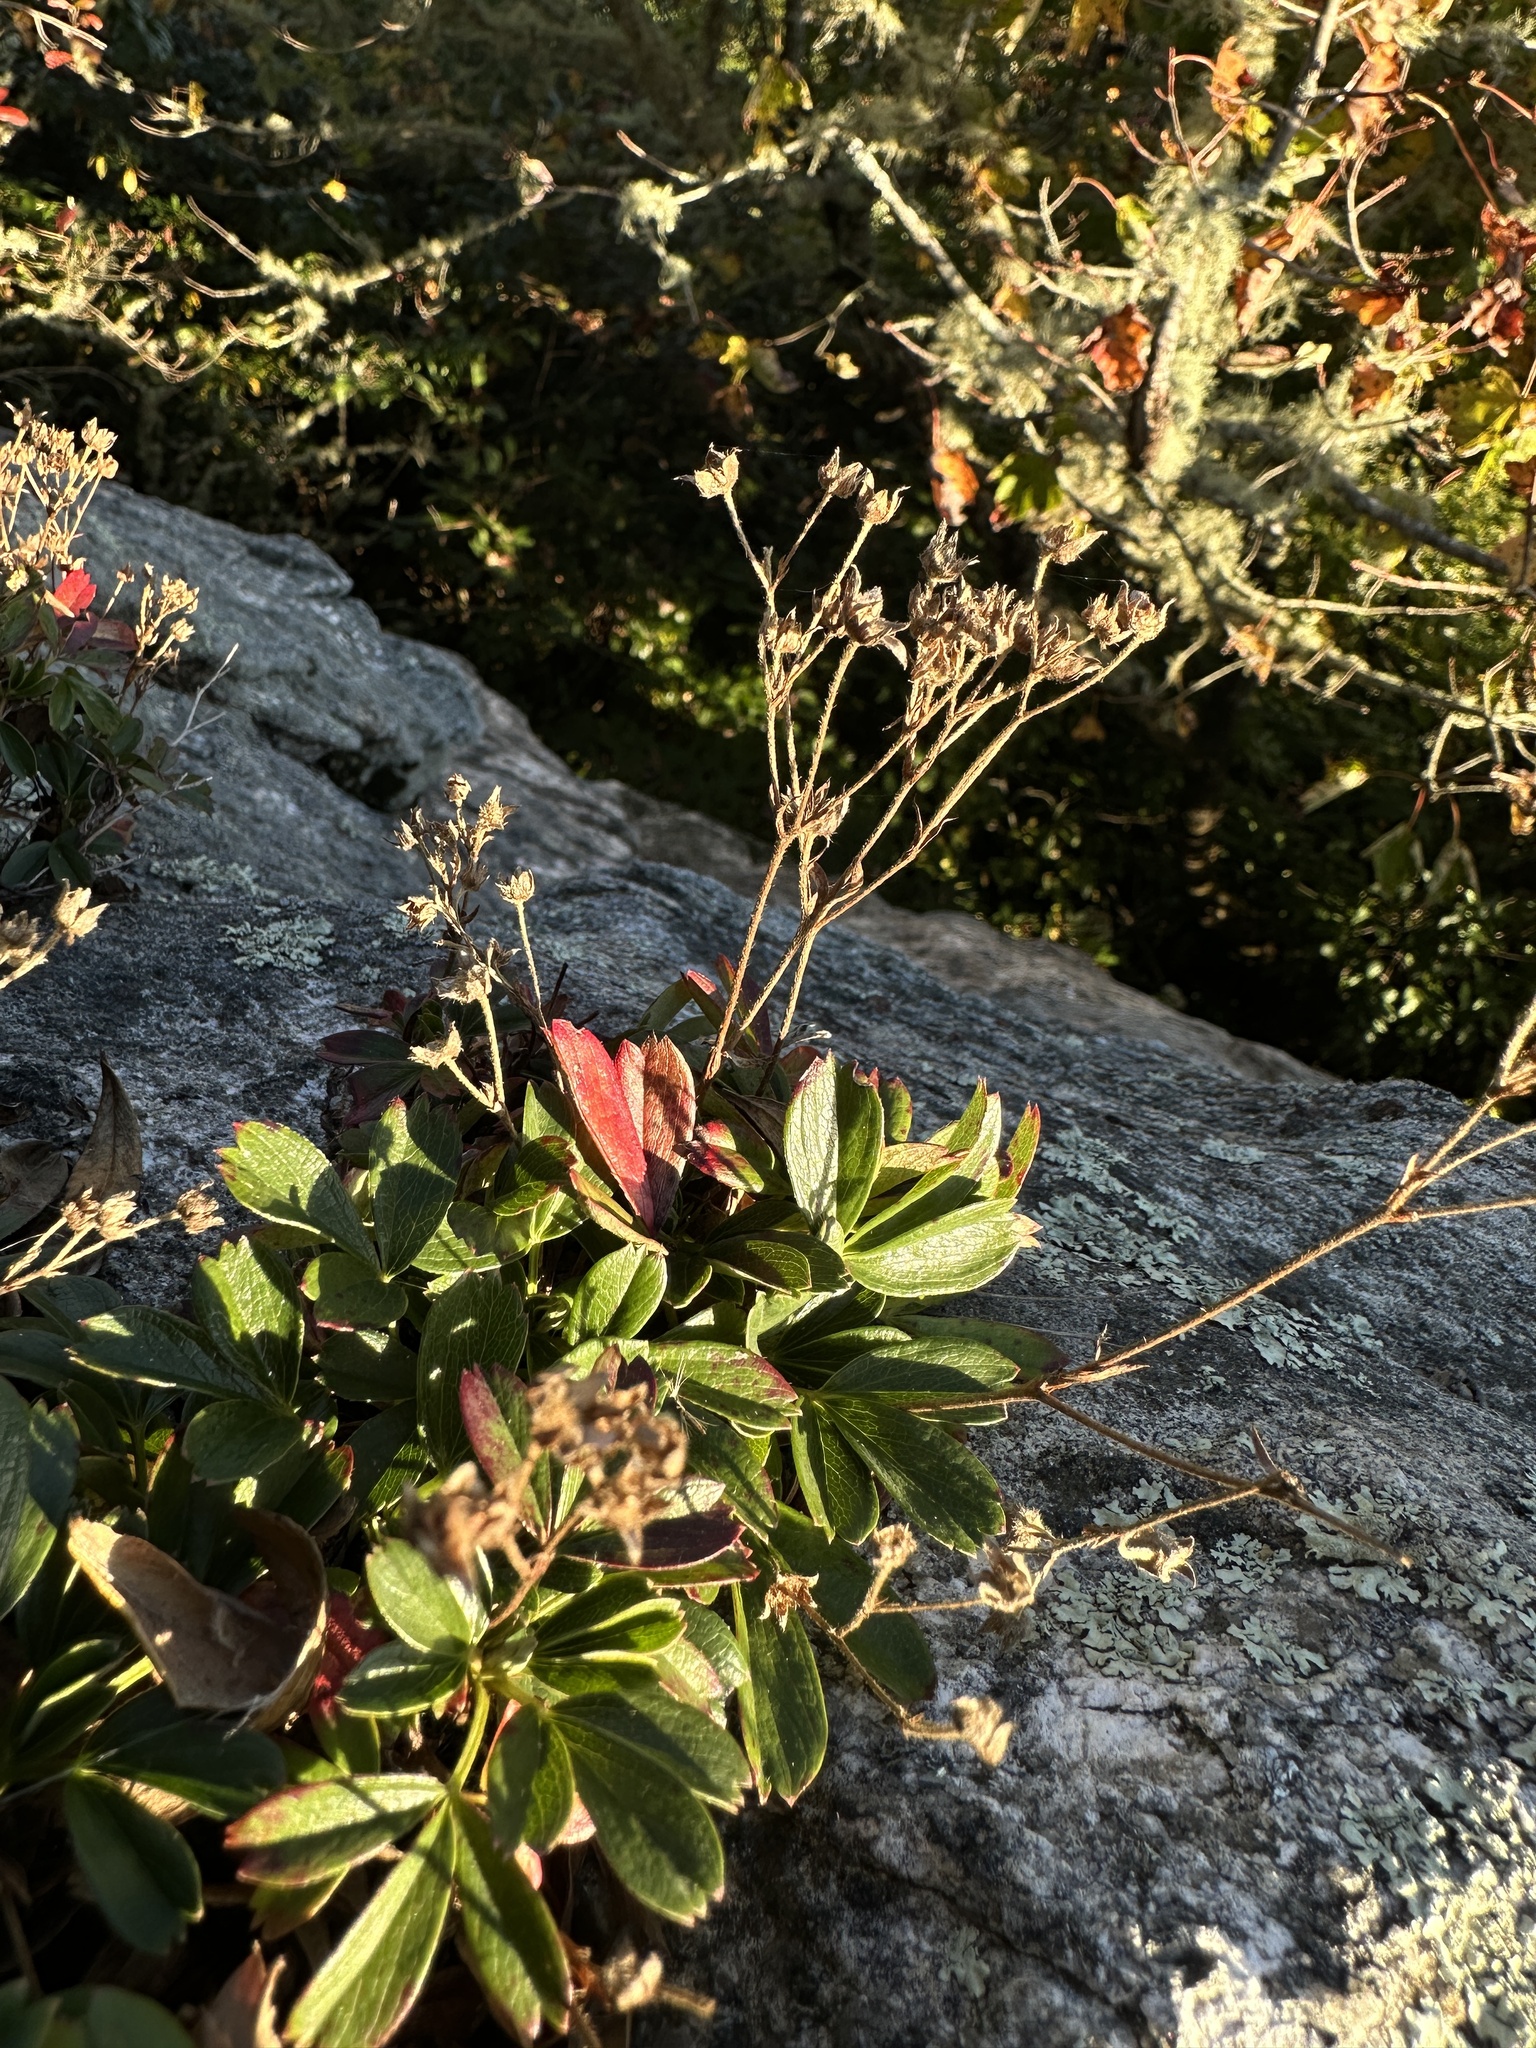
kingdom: Plantae
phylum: Tracheophyta
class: Magnoliopsida
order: Rosales
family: Rosaceae
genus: Sibbaldia
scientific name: Sibbaldia tridentata
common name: Three-toothed cinquefoil
